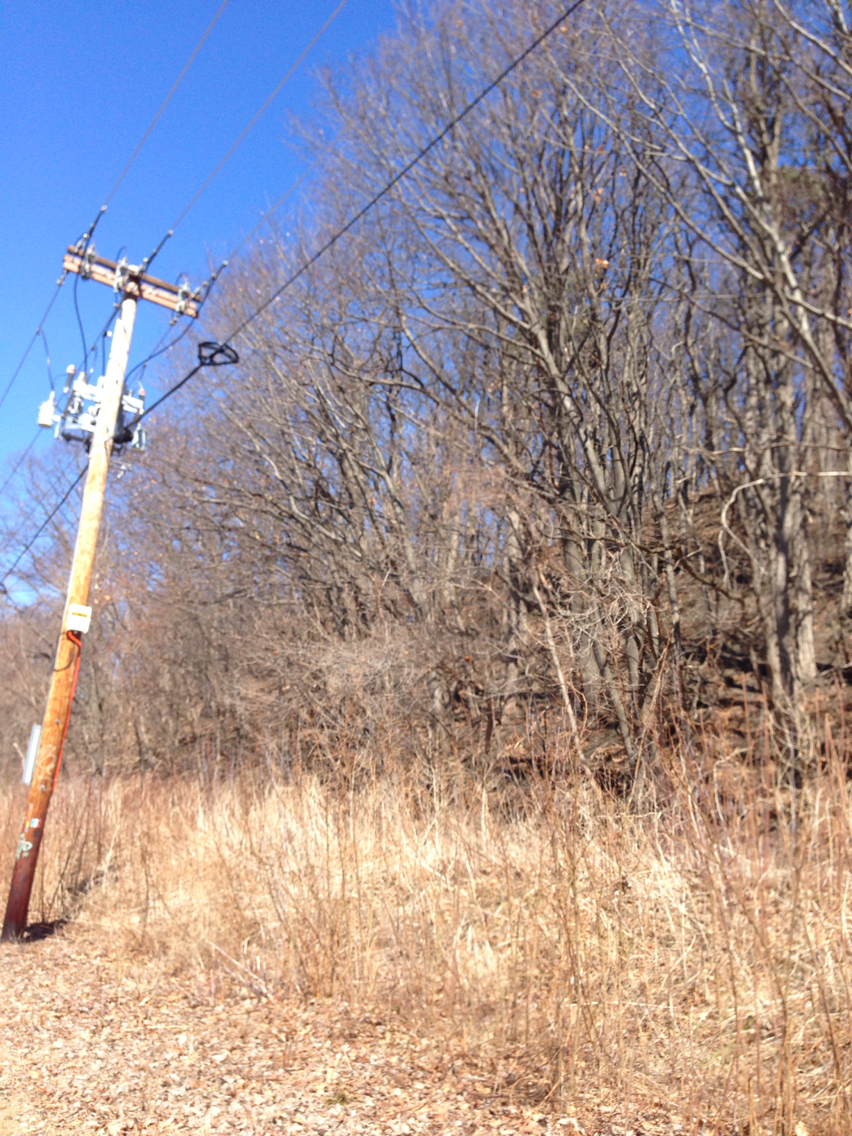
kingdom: Plantae
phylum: Tracheophyta
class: Magnoliopsida
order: Fagales
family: Fagaceae
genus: Quercus
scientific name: Quercus rubra
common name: Red oak
